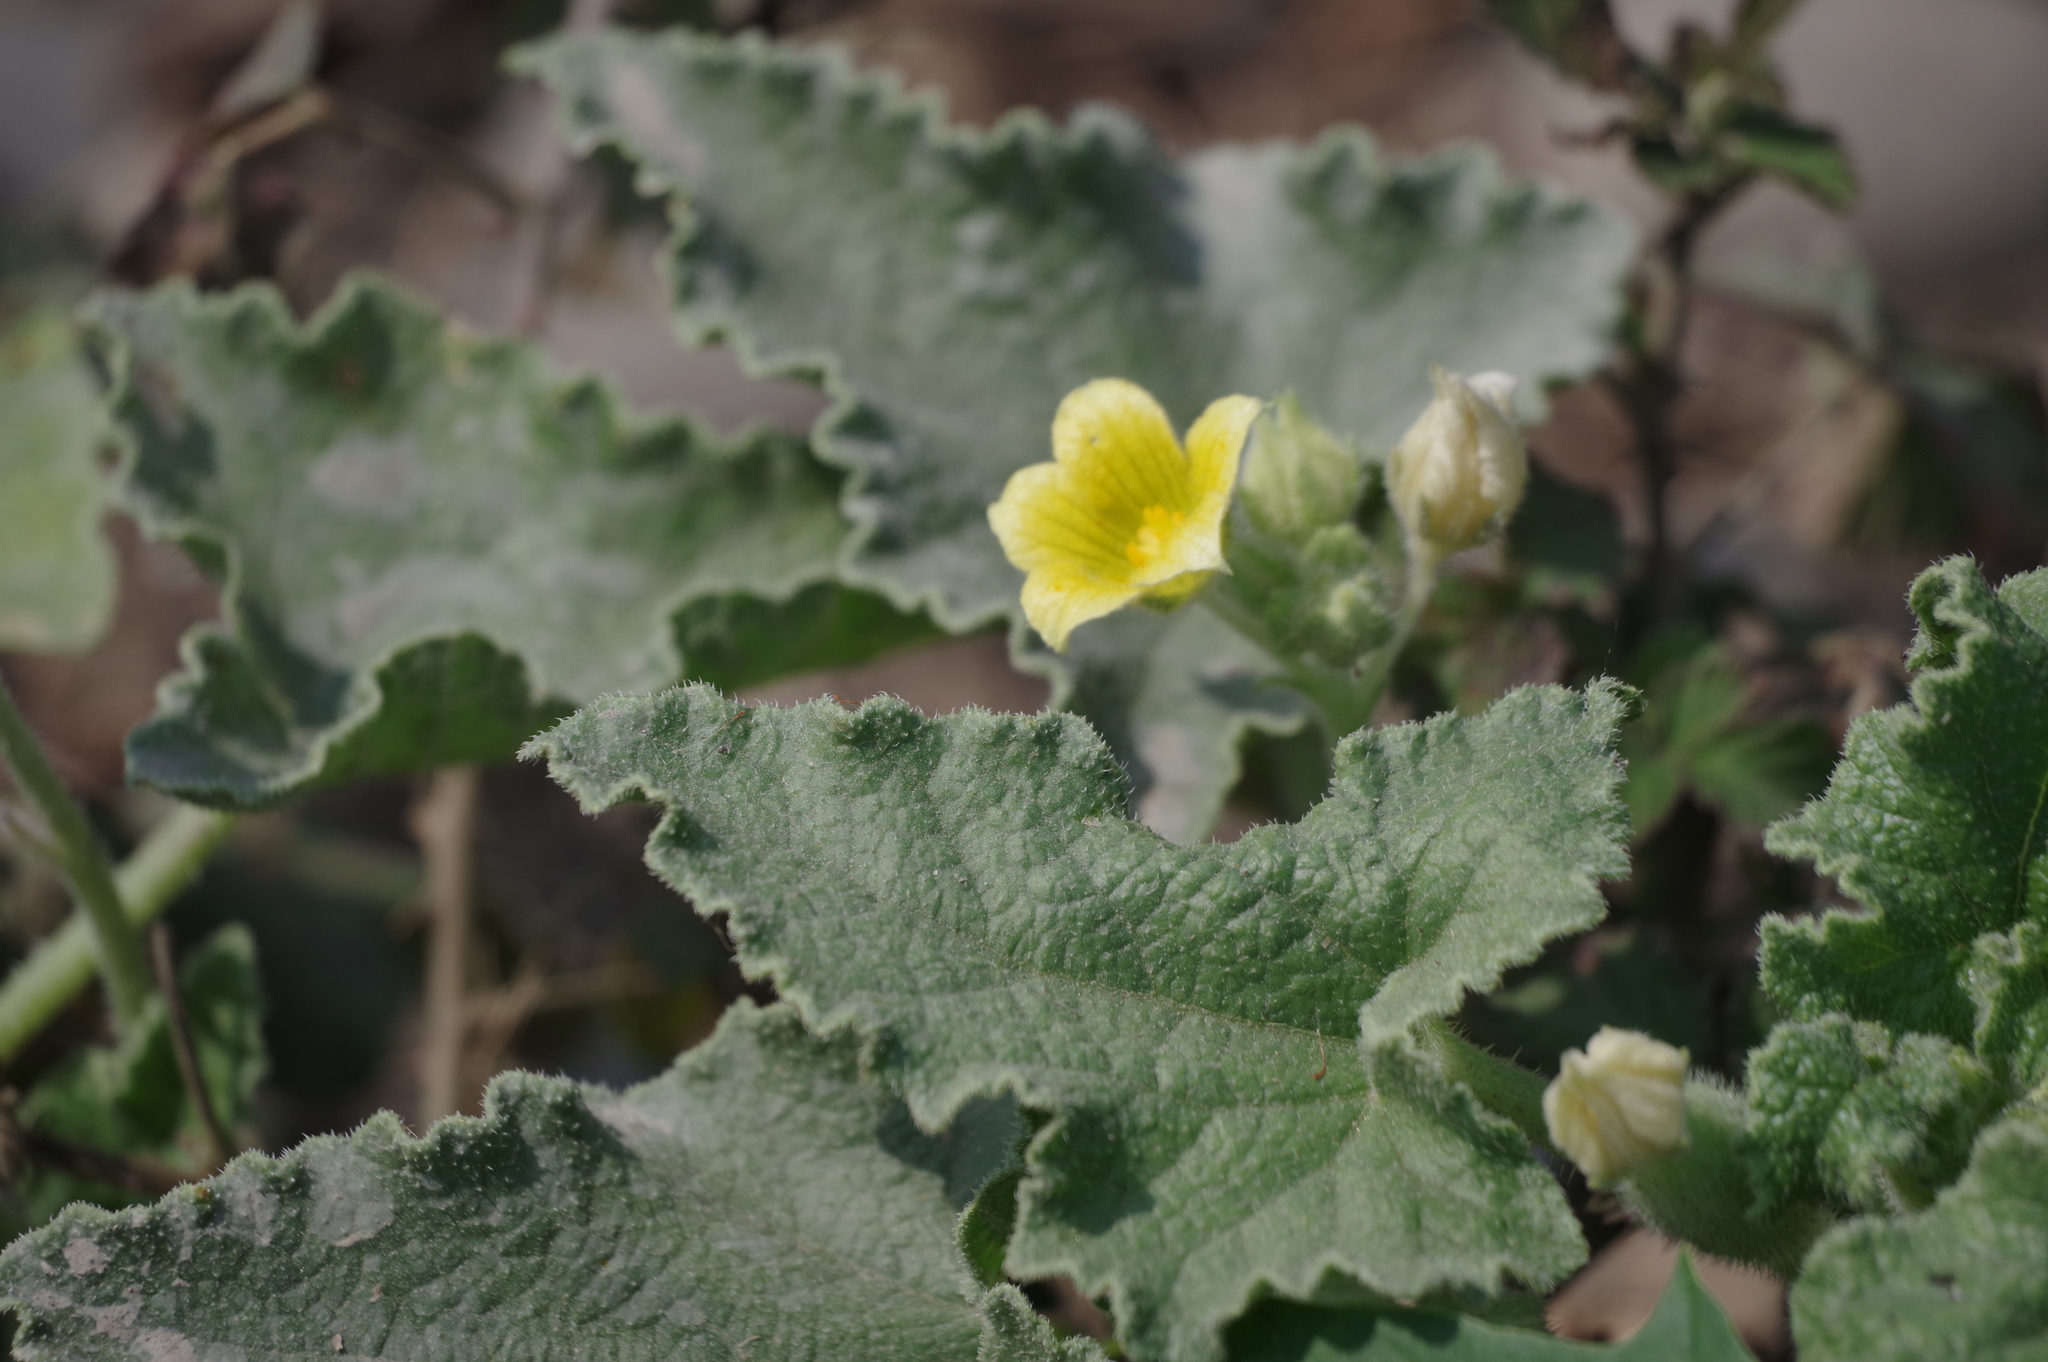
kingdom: Plantae
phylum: Tracheophyta
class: Magnoliopsida
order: Cucurbitales
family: Cucurbitaceae
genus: Ecballium
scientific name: Ecballium elaterium
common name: Squirting cucumber
